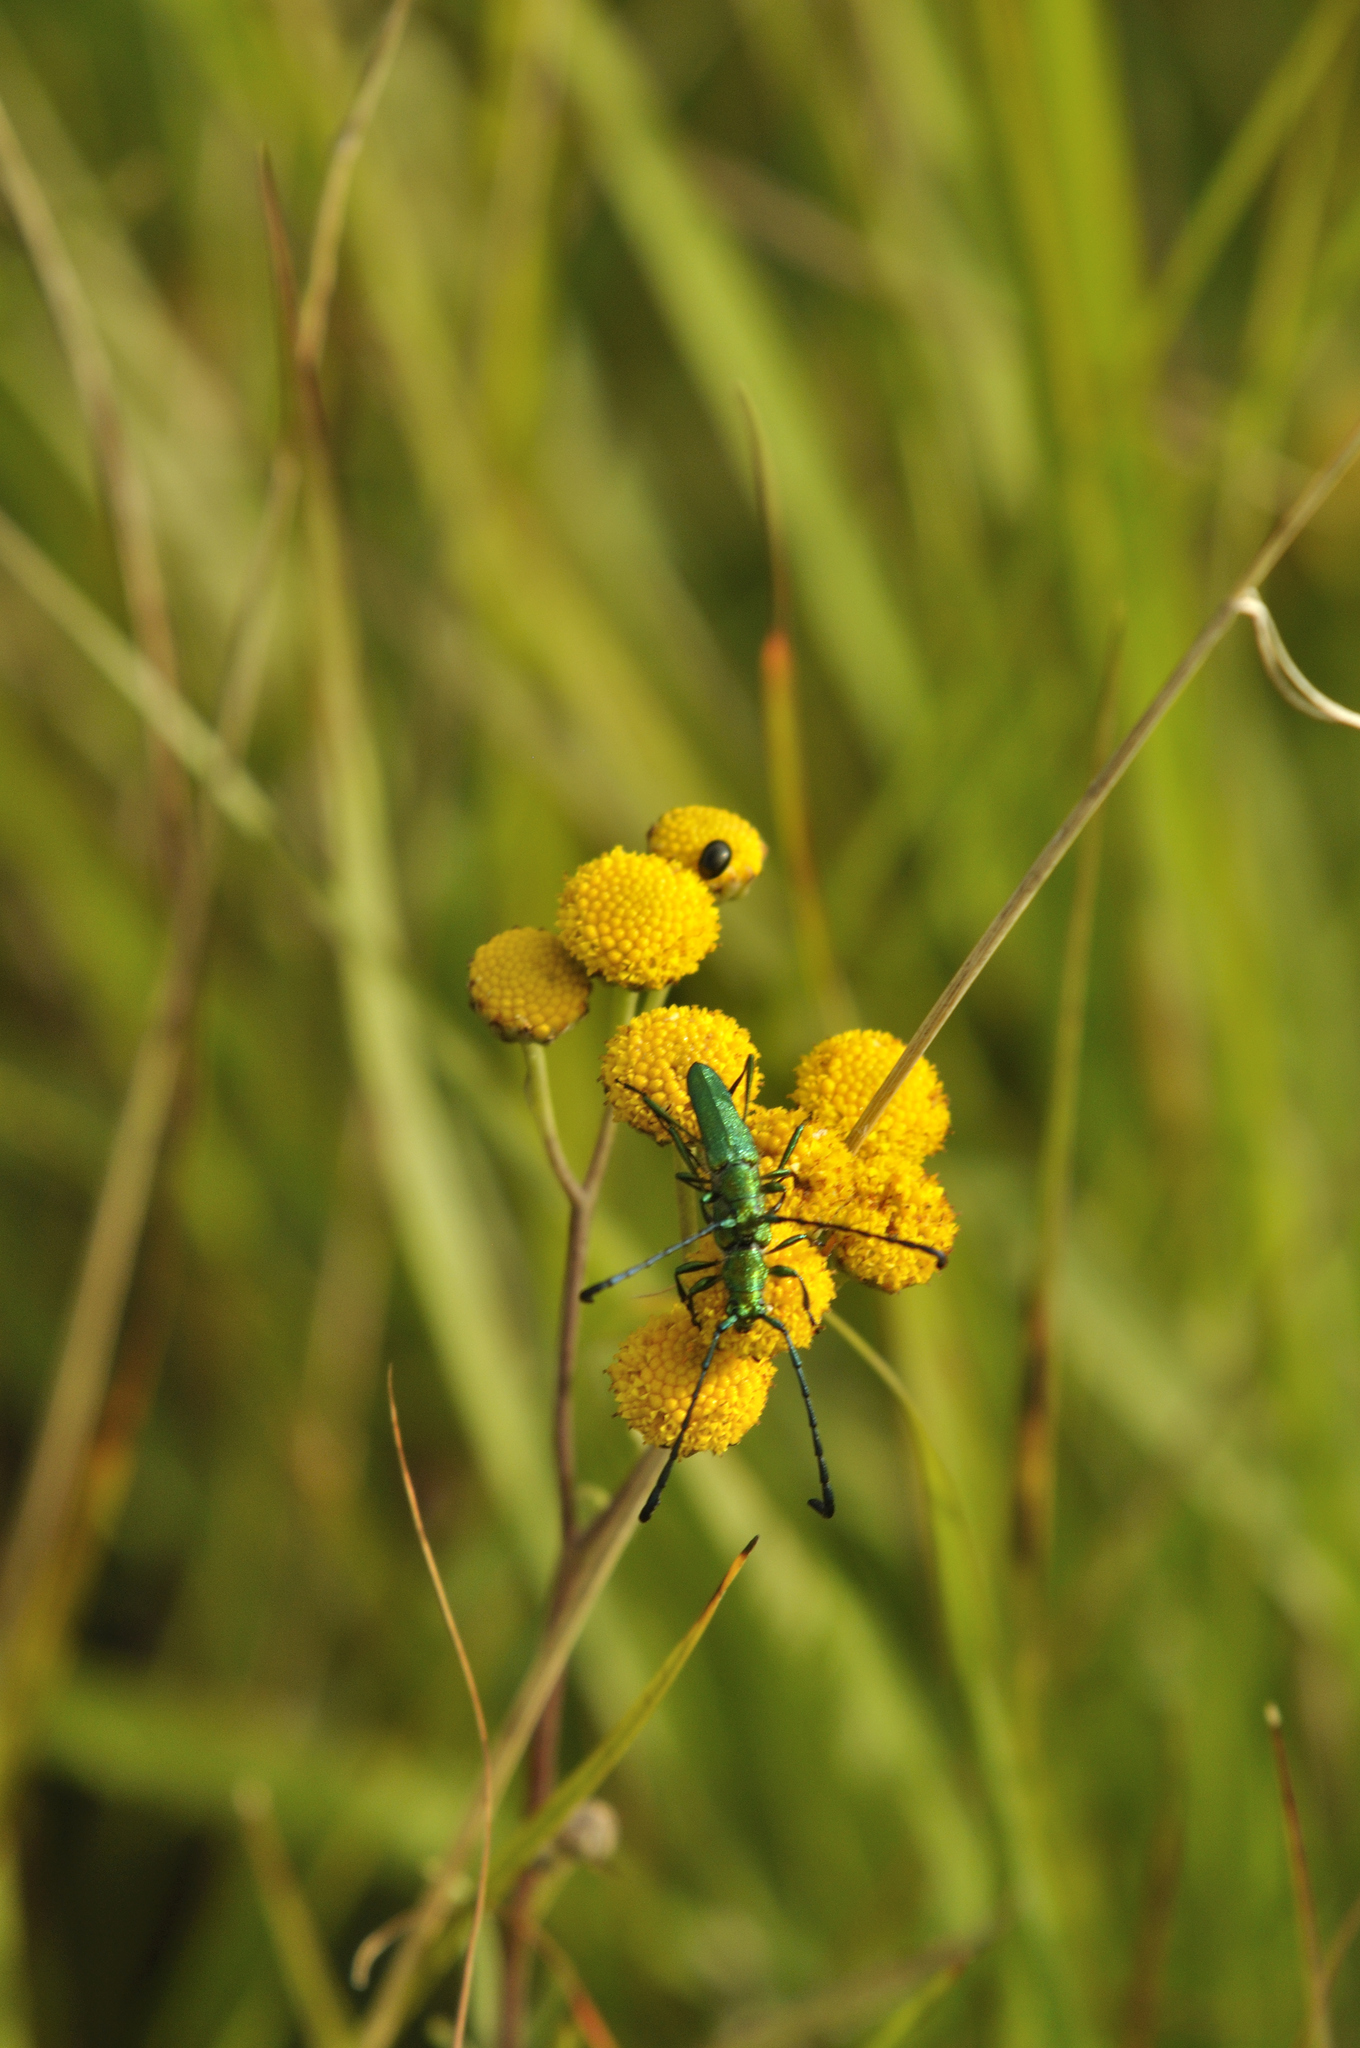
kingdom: Animalia
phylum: Arthropoda
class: Insecta
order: Coleoptera
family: Cerambycidae
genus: Hypocrites
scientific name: Hypocrites
